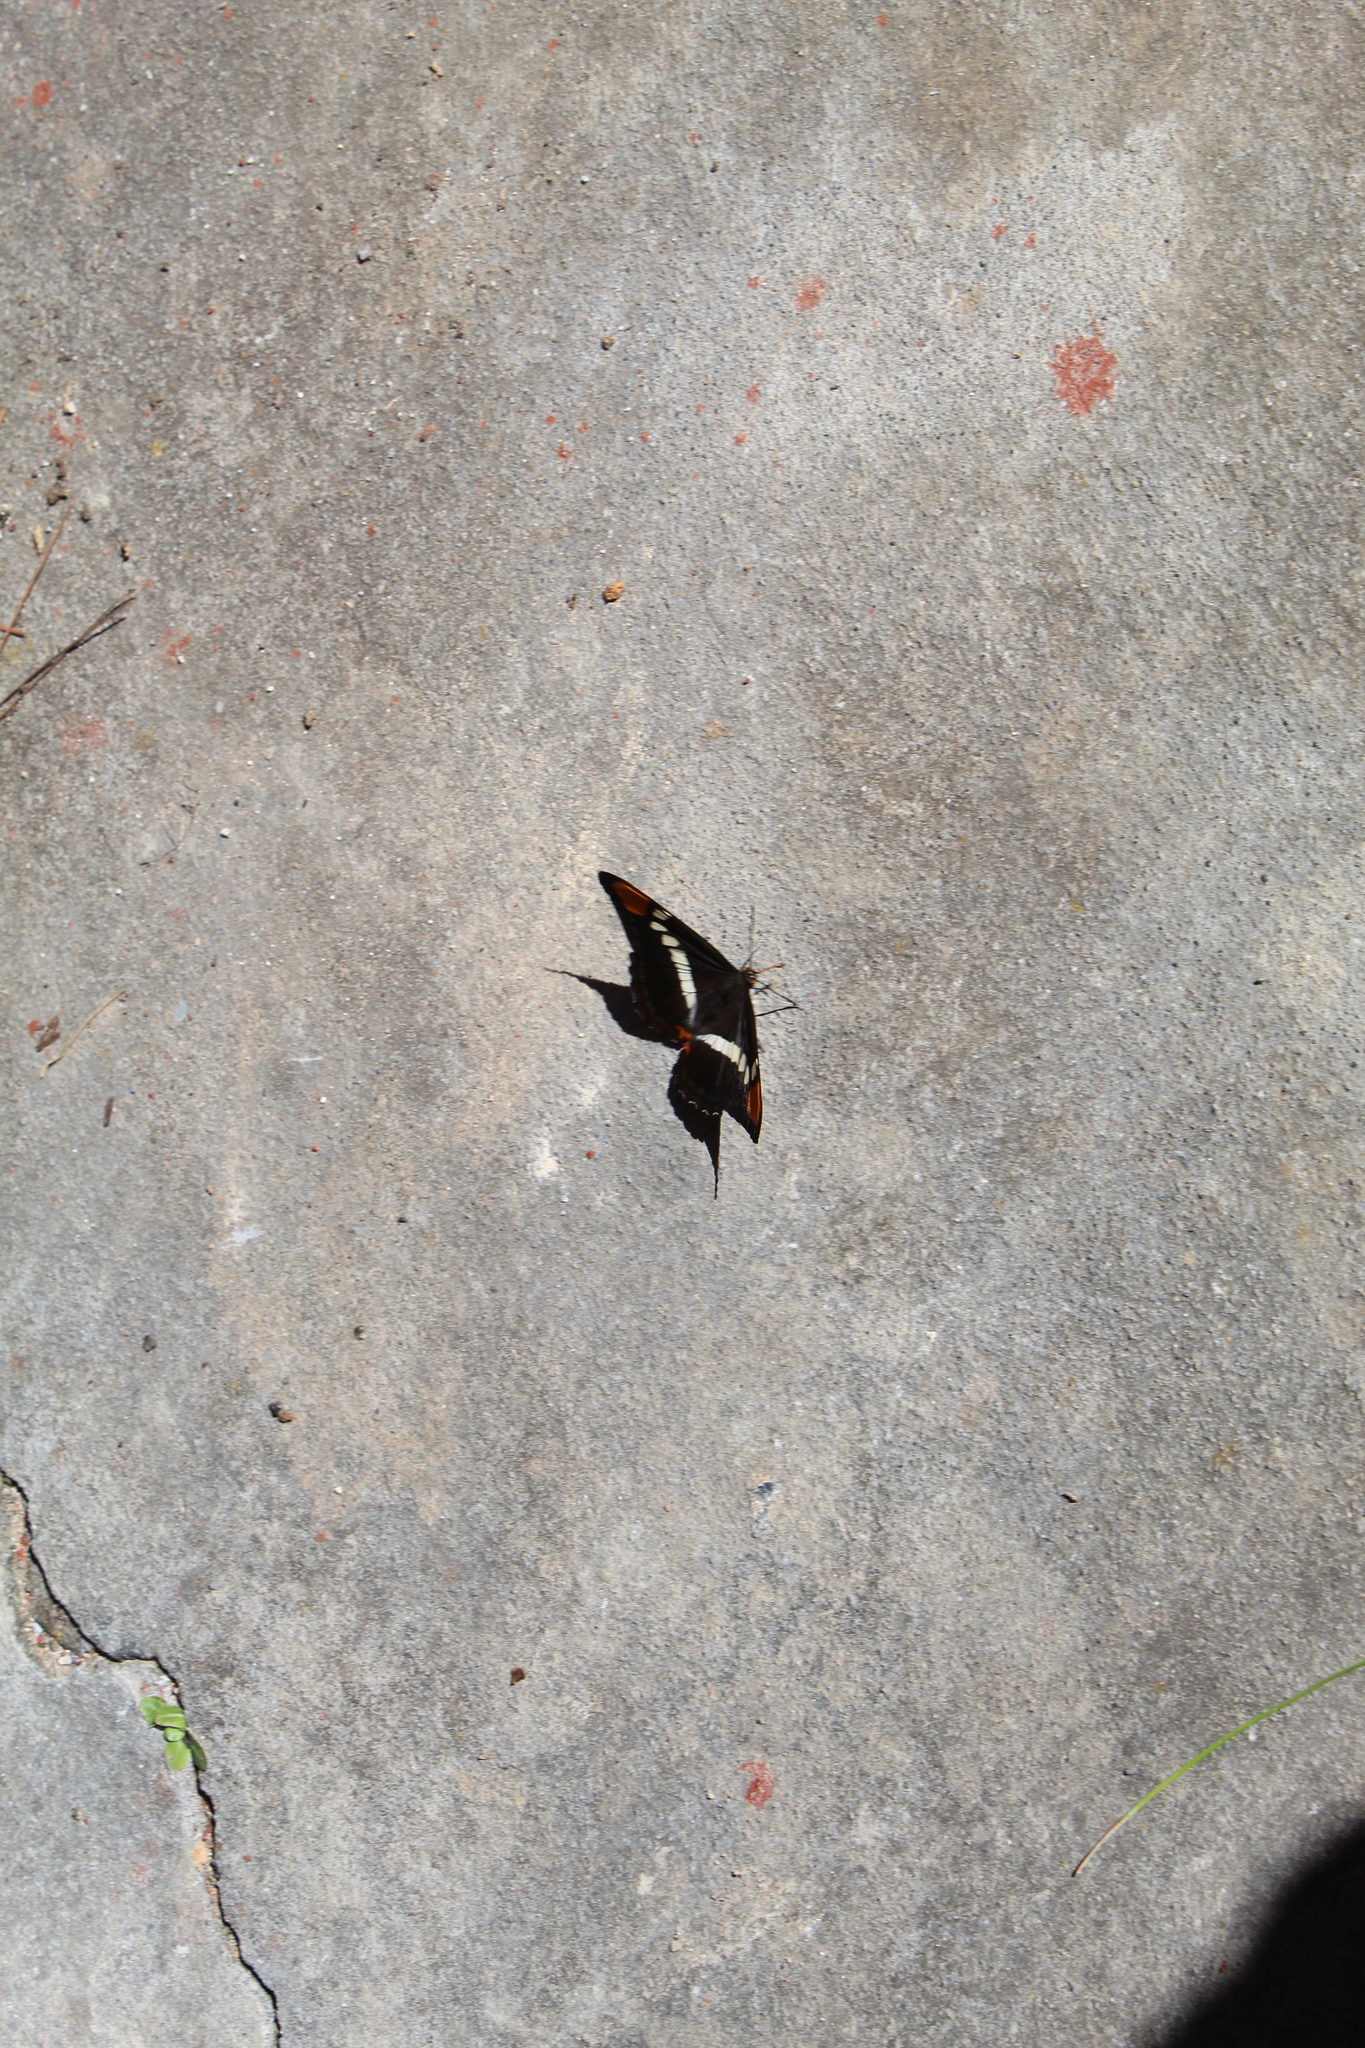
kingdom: Animalia
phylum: Arthropoda
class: Insecta
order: Lepidoptera
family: Nymphalidae
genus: Limenitis
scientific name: Limenitis bredowii
